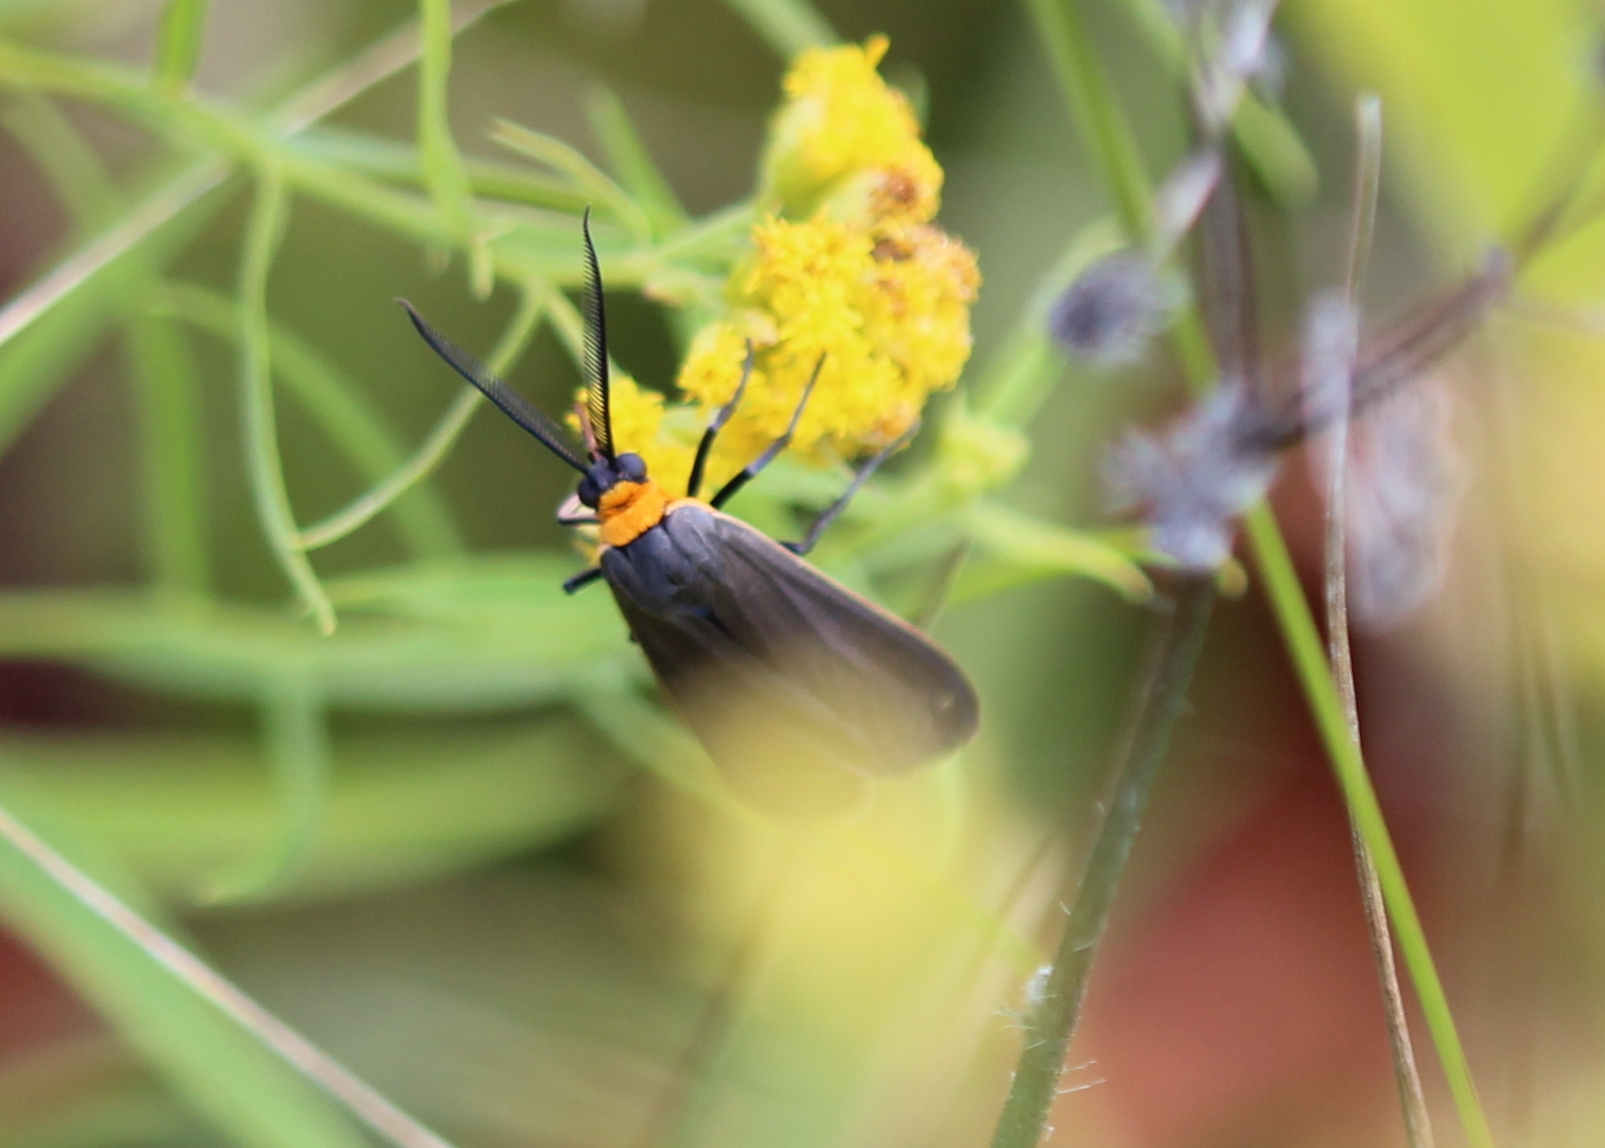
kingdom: Animalia
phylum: Arthropoda
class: Insecta
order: Lepidoptera
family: Erebidae
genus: Cisseps
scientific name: Cisseps fulvicollis
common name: Yellow-collared scape moth
